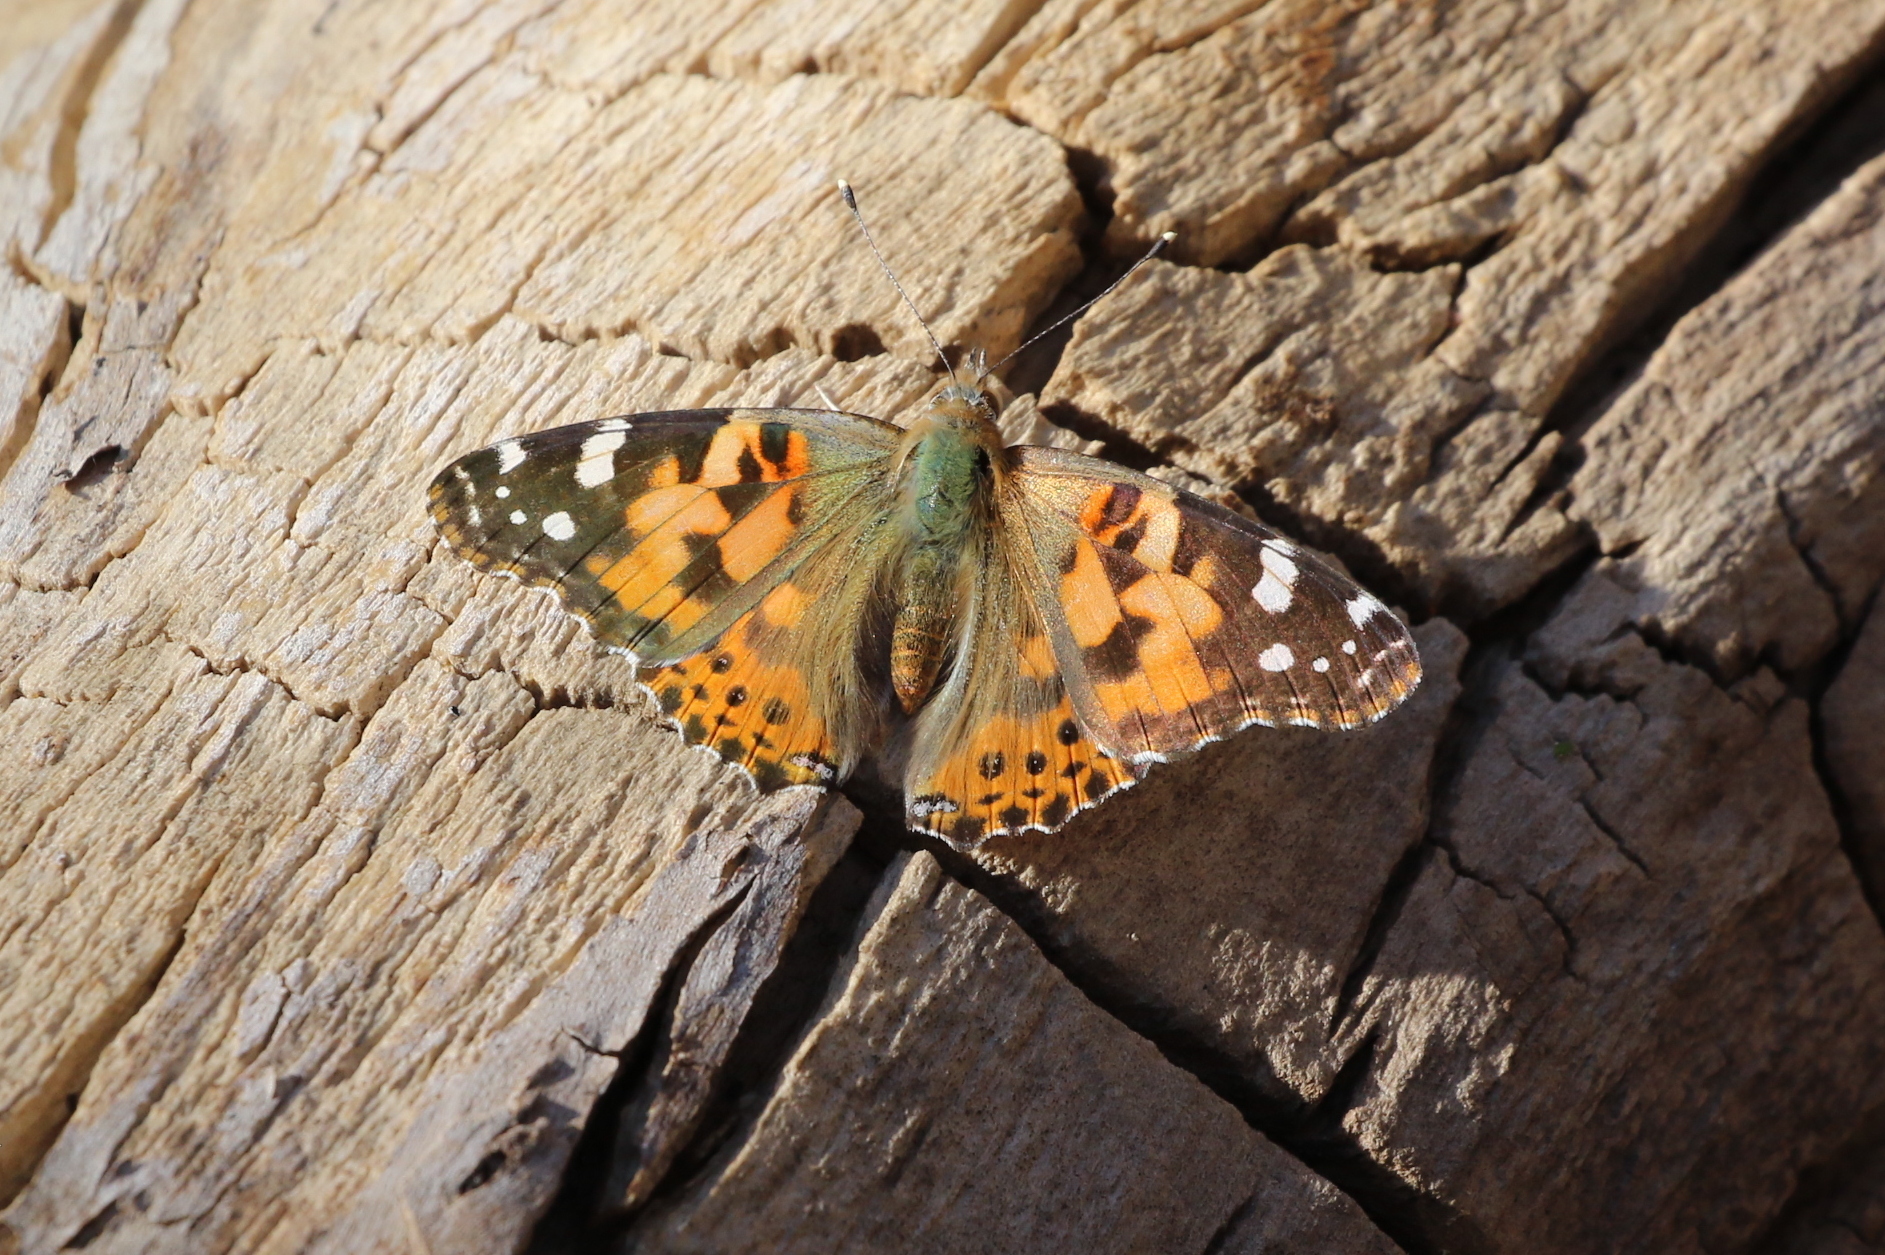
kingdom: Animalia
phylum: Arthropoda
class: Insecta
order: Lepidoptera
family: Nymphalidae
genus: Vanessa
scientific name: Vanessa cardui
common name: Painted lady
